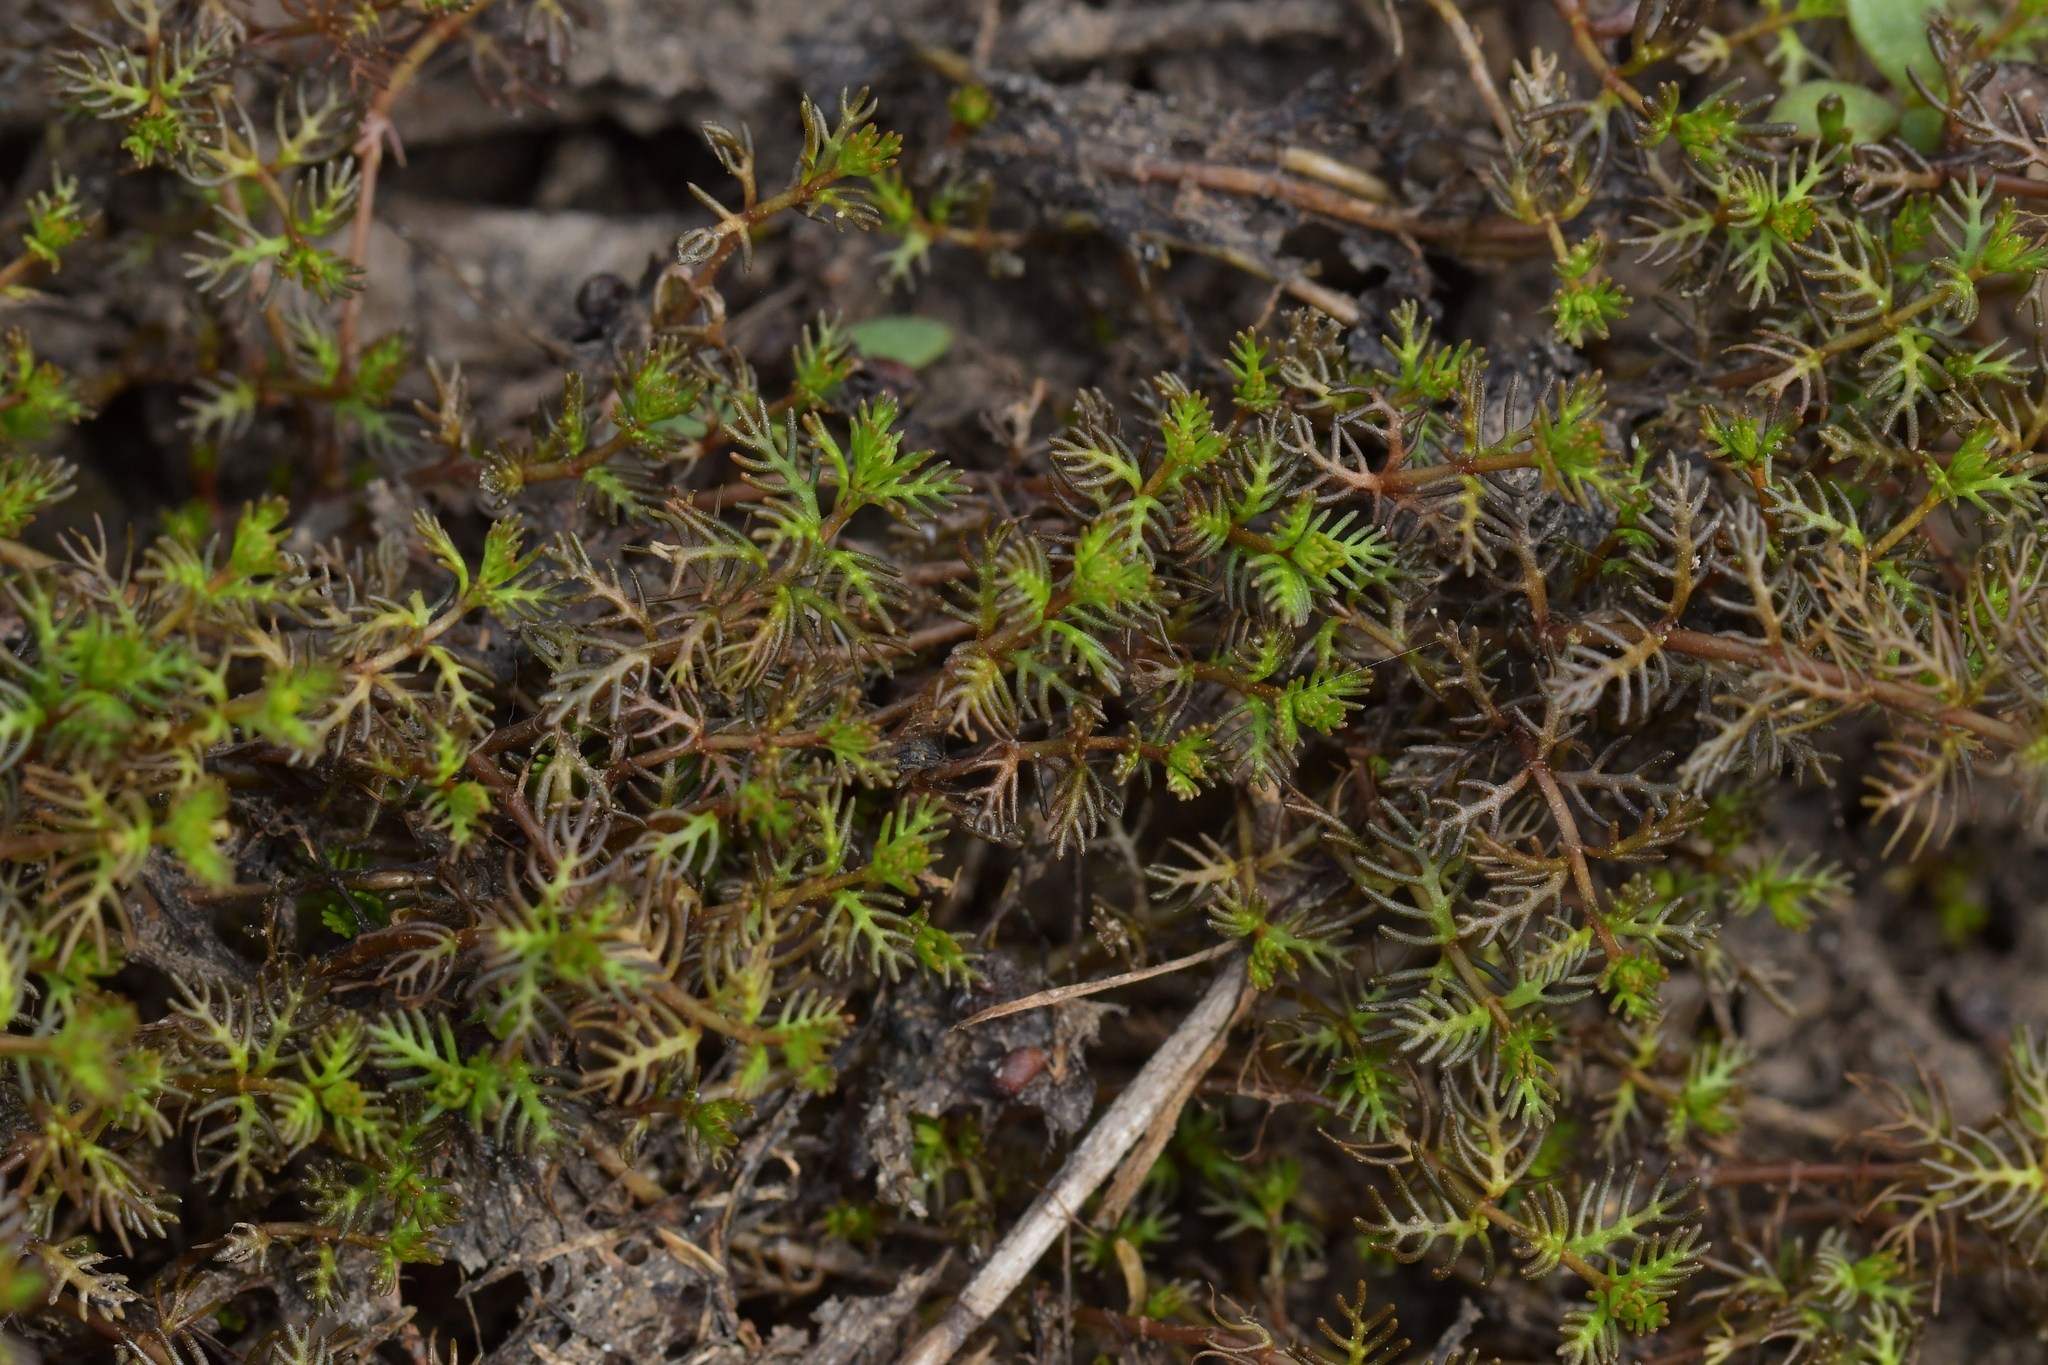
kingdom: Plantae
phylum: Tracheophyta
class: Magnoliopsida
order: Saxifragales
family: Haloragaceae
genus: Myriophyllum
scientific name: Myriophyllum triphyllum
